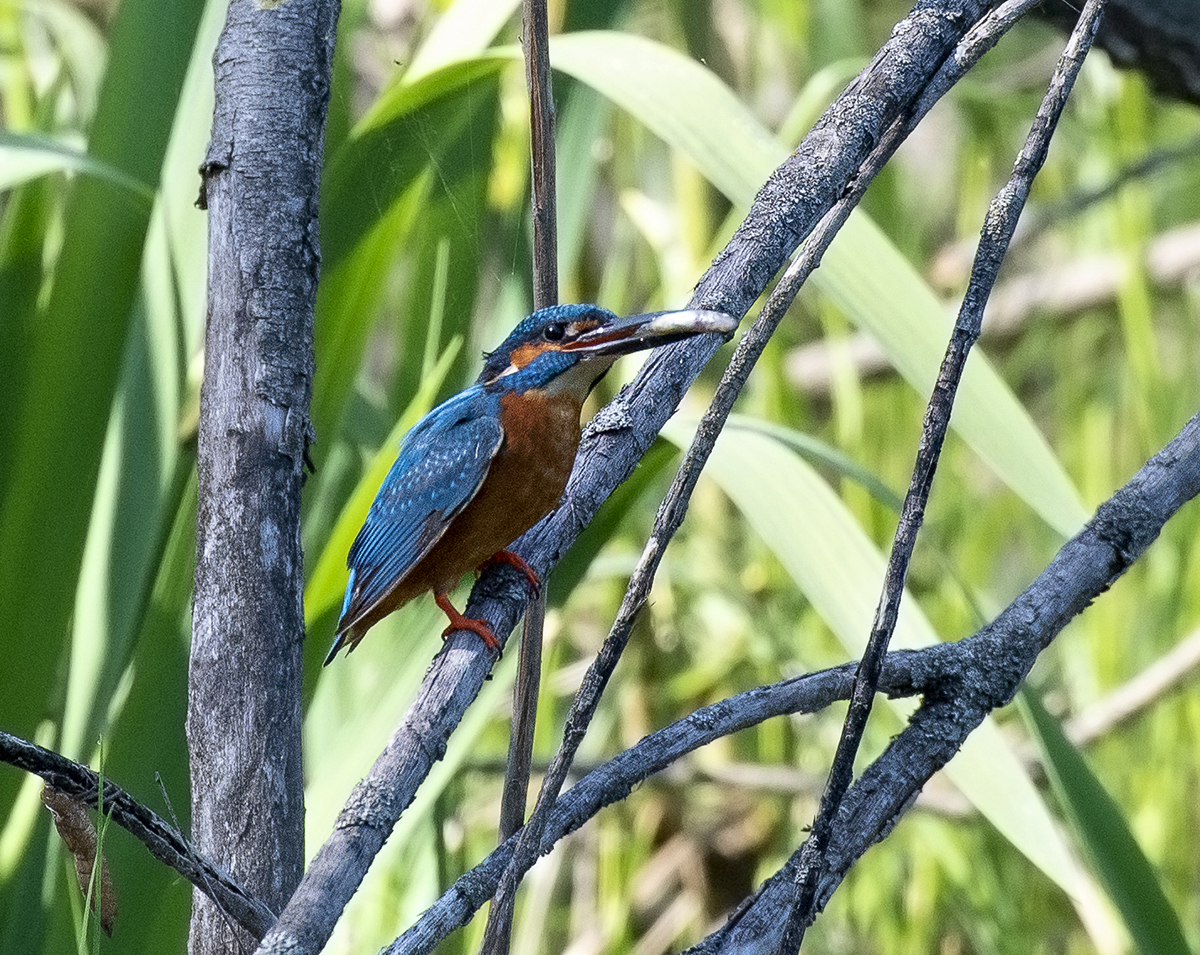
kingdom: Animalia
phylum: Chordata
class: Aves
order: Coraciiformes
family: Alcedinidae
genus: Alcedo
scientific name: Alcedo atthis
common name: Common kingfisher
